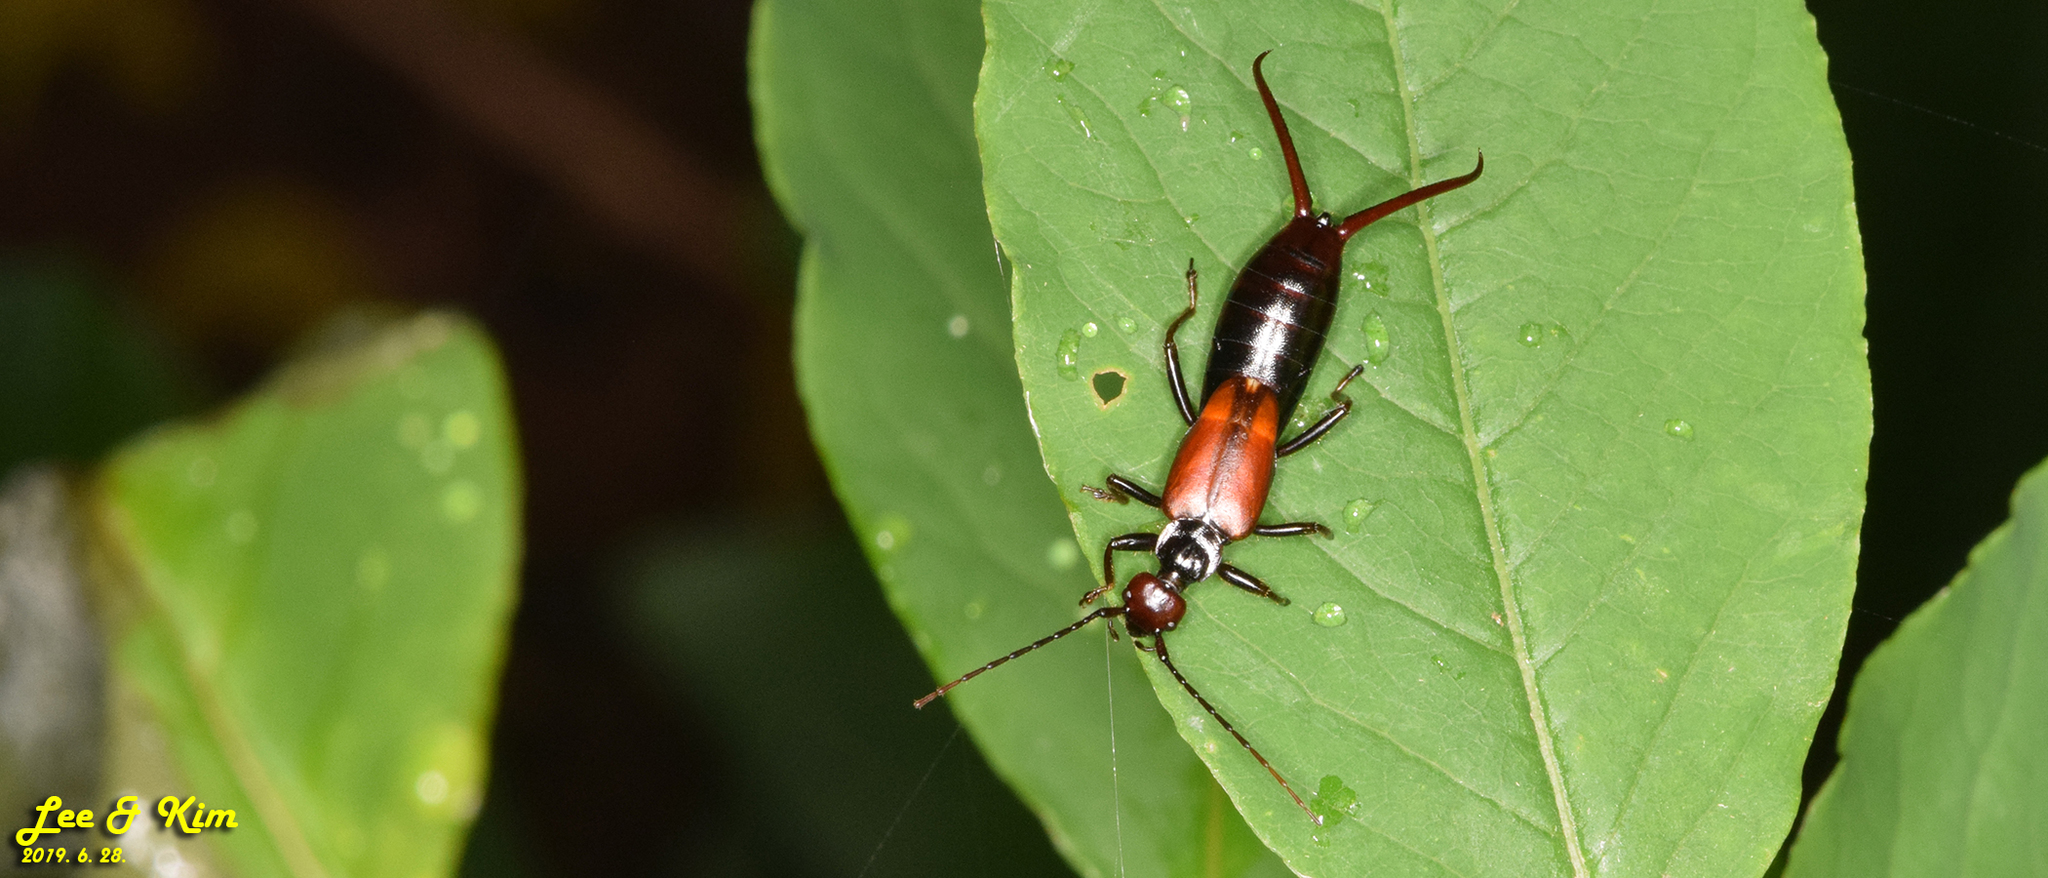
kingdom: Animalia
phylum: Arthropoda
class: Insecta
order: Dermaptera
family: Forficulidae
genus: Timomenus
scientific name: Timomenus komarovi
